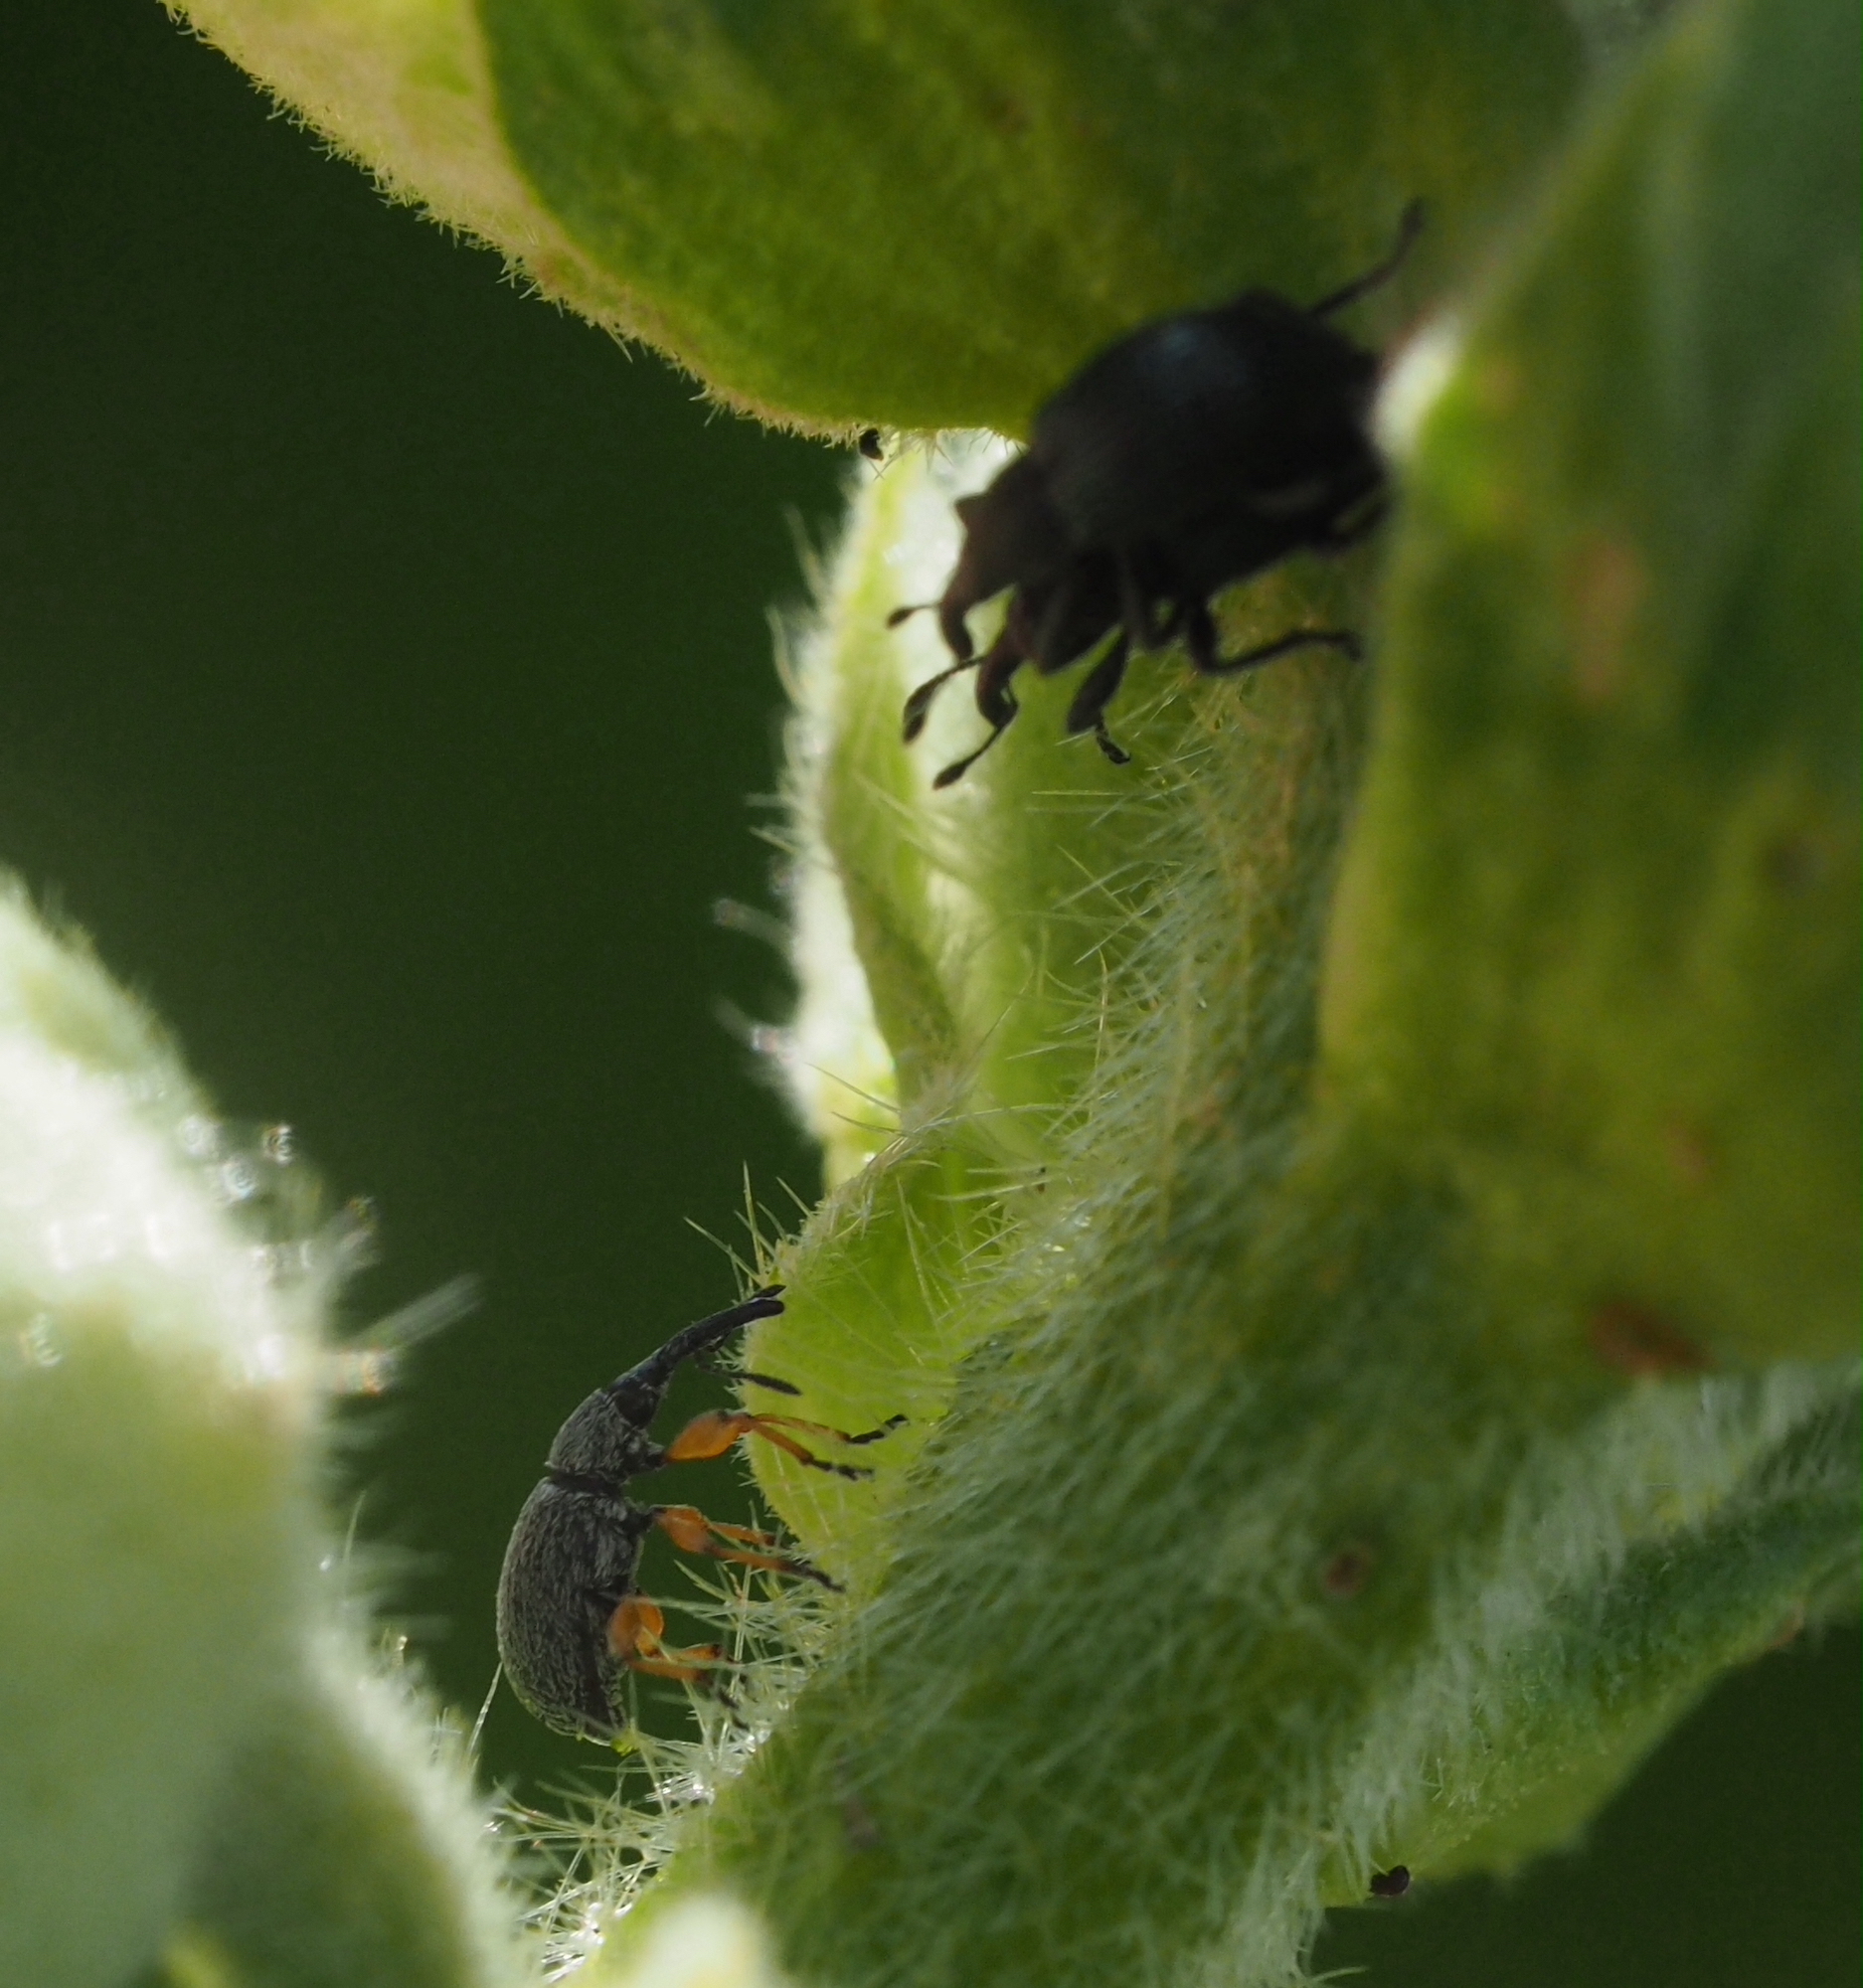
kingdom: Animalia
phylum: Arthropoda
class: Insecta
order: Coleoptera
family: Brentidae
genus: Rhopalapion
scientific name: Rhopalapion longirostre
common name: Hollyhock weevil
